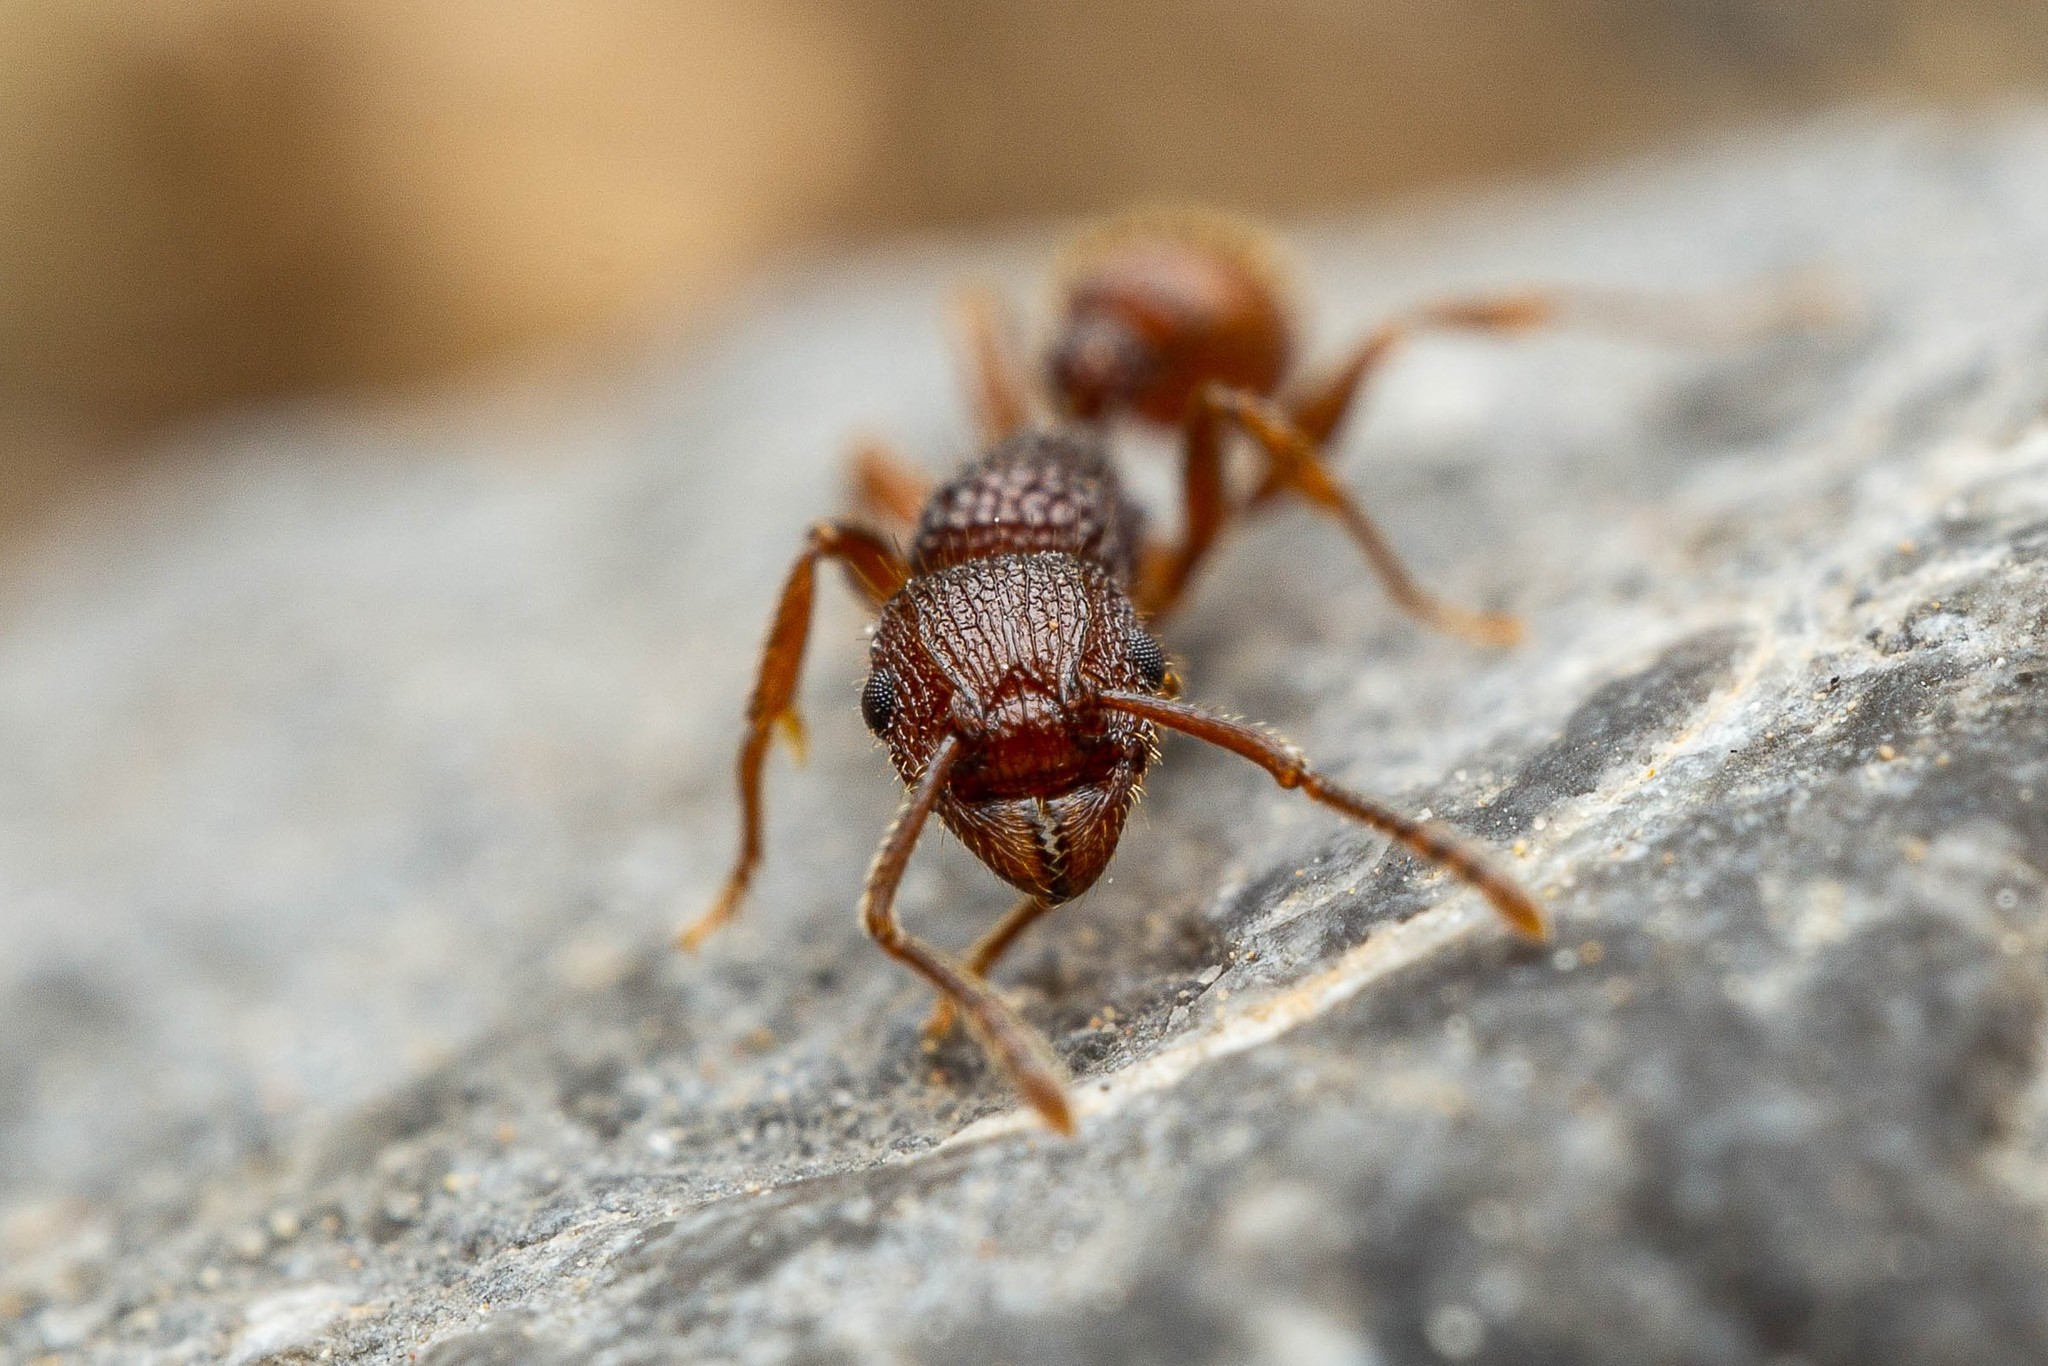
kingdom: Animalia
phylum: Arthropoda
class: Insecta
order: Hymenoptera
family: Formicidae
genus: Tetramorium
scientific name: Tetramorium hispidum
